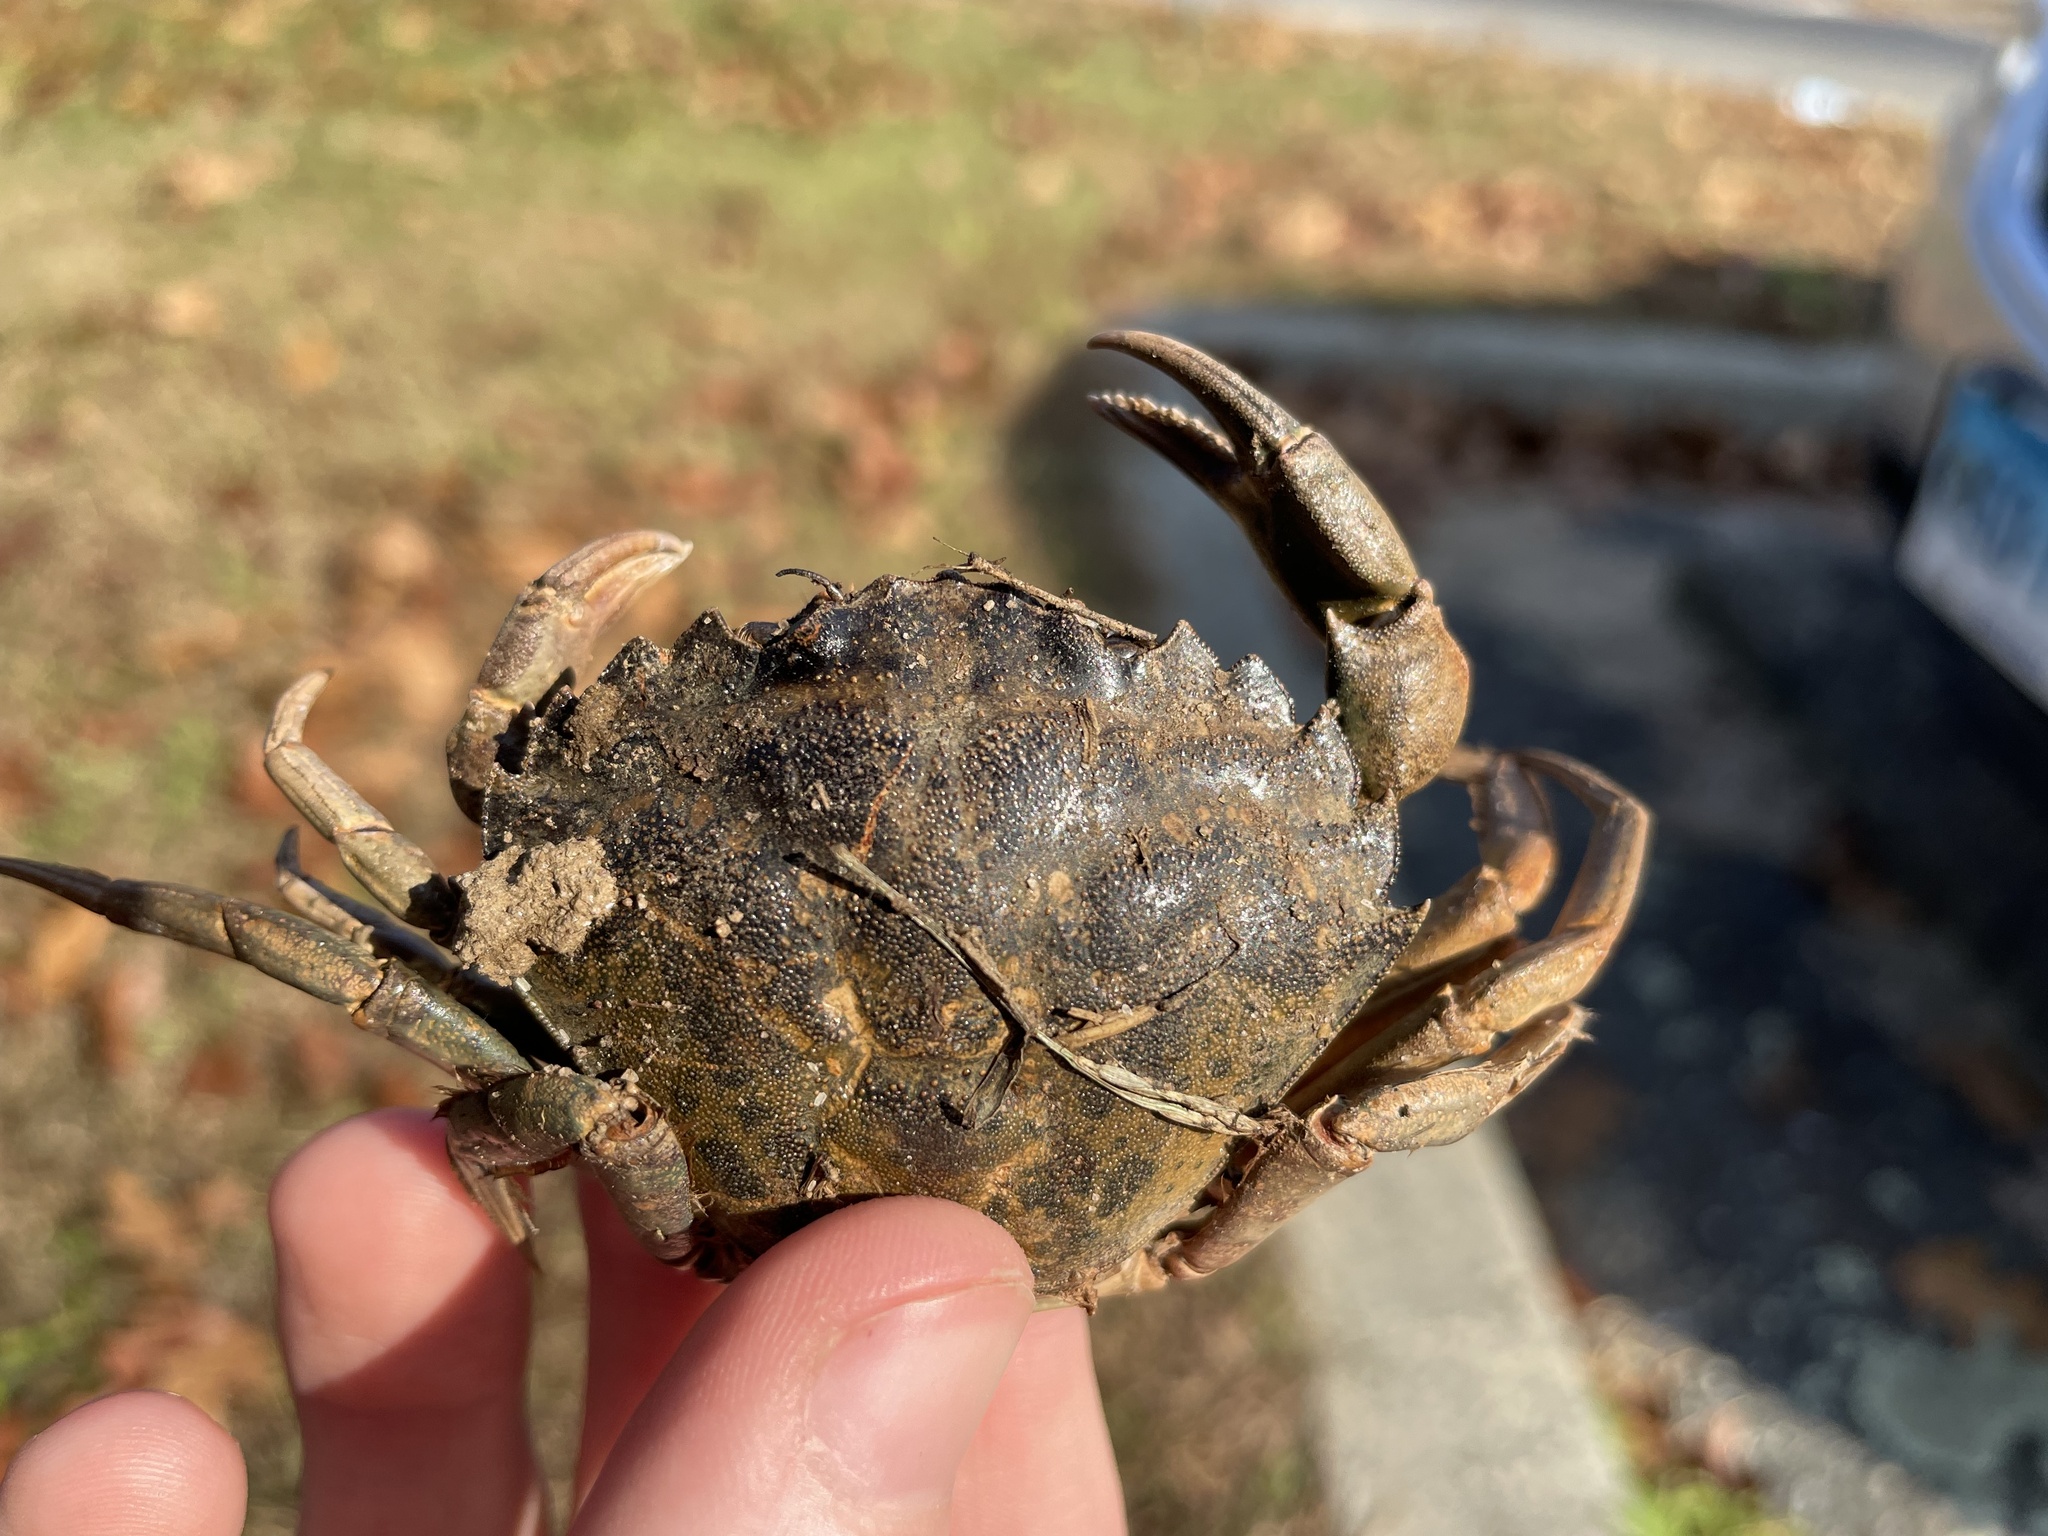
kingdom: Animalia
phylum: Arthropoda
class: Malacostraca
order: Decapoda
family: Carcinidae
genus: Carcinus
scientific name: Carcinus maenas
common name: European green crab
